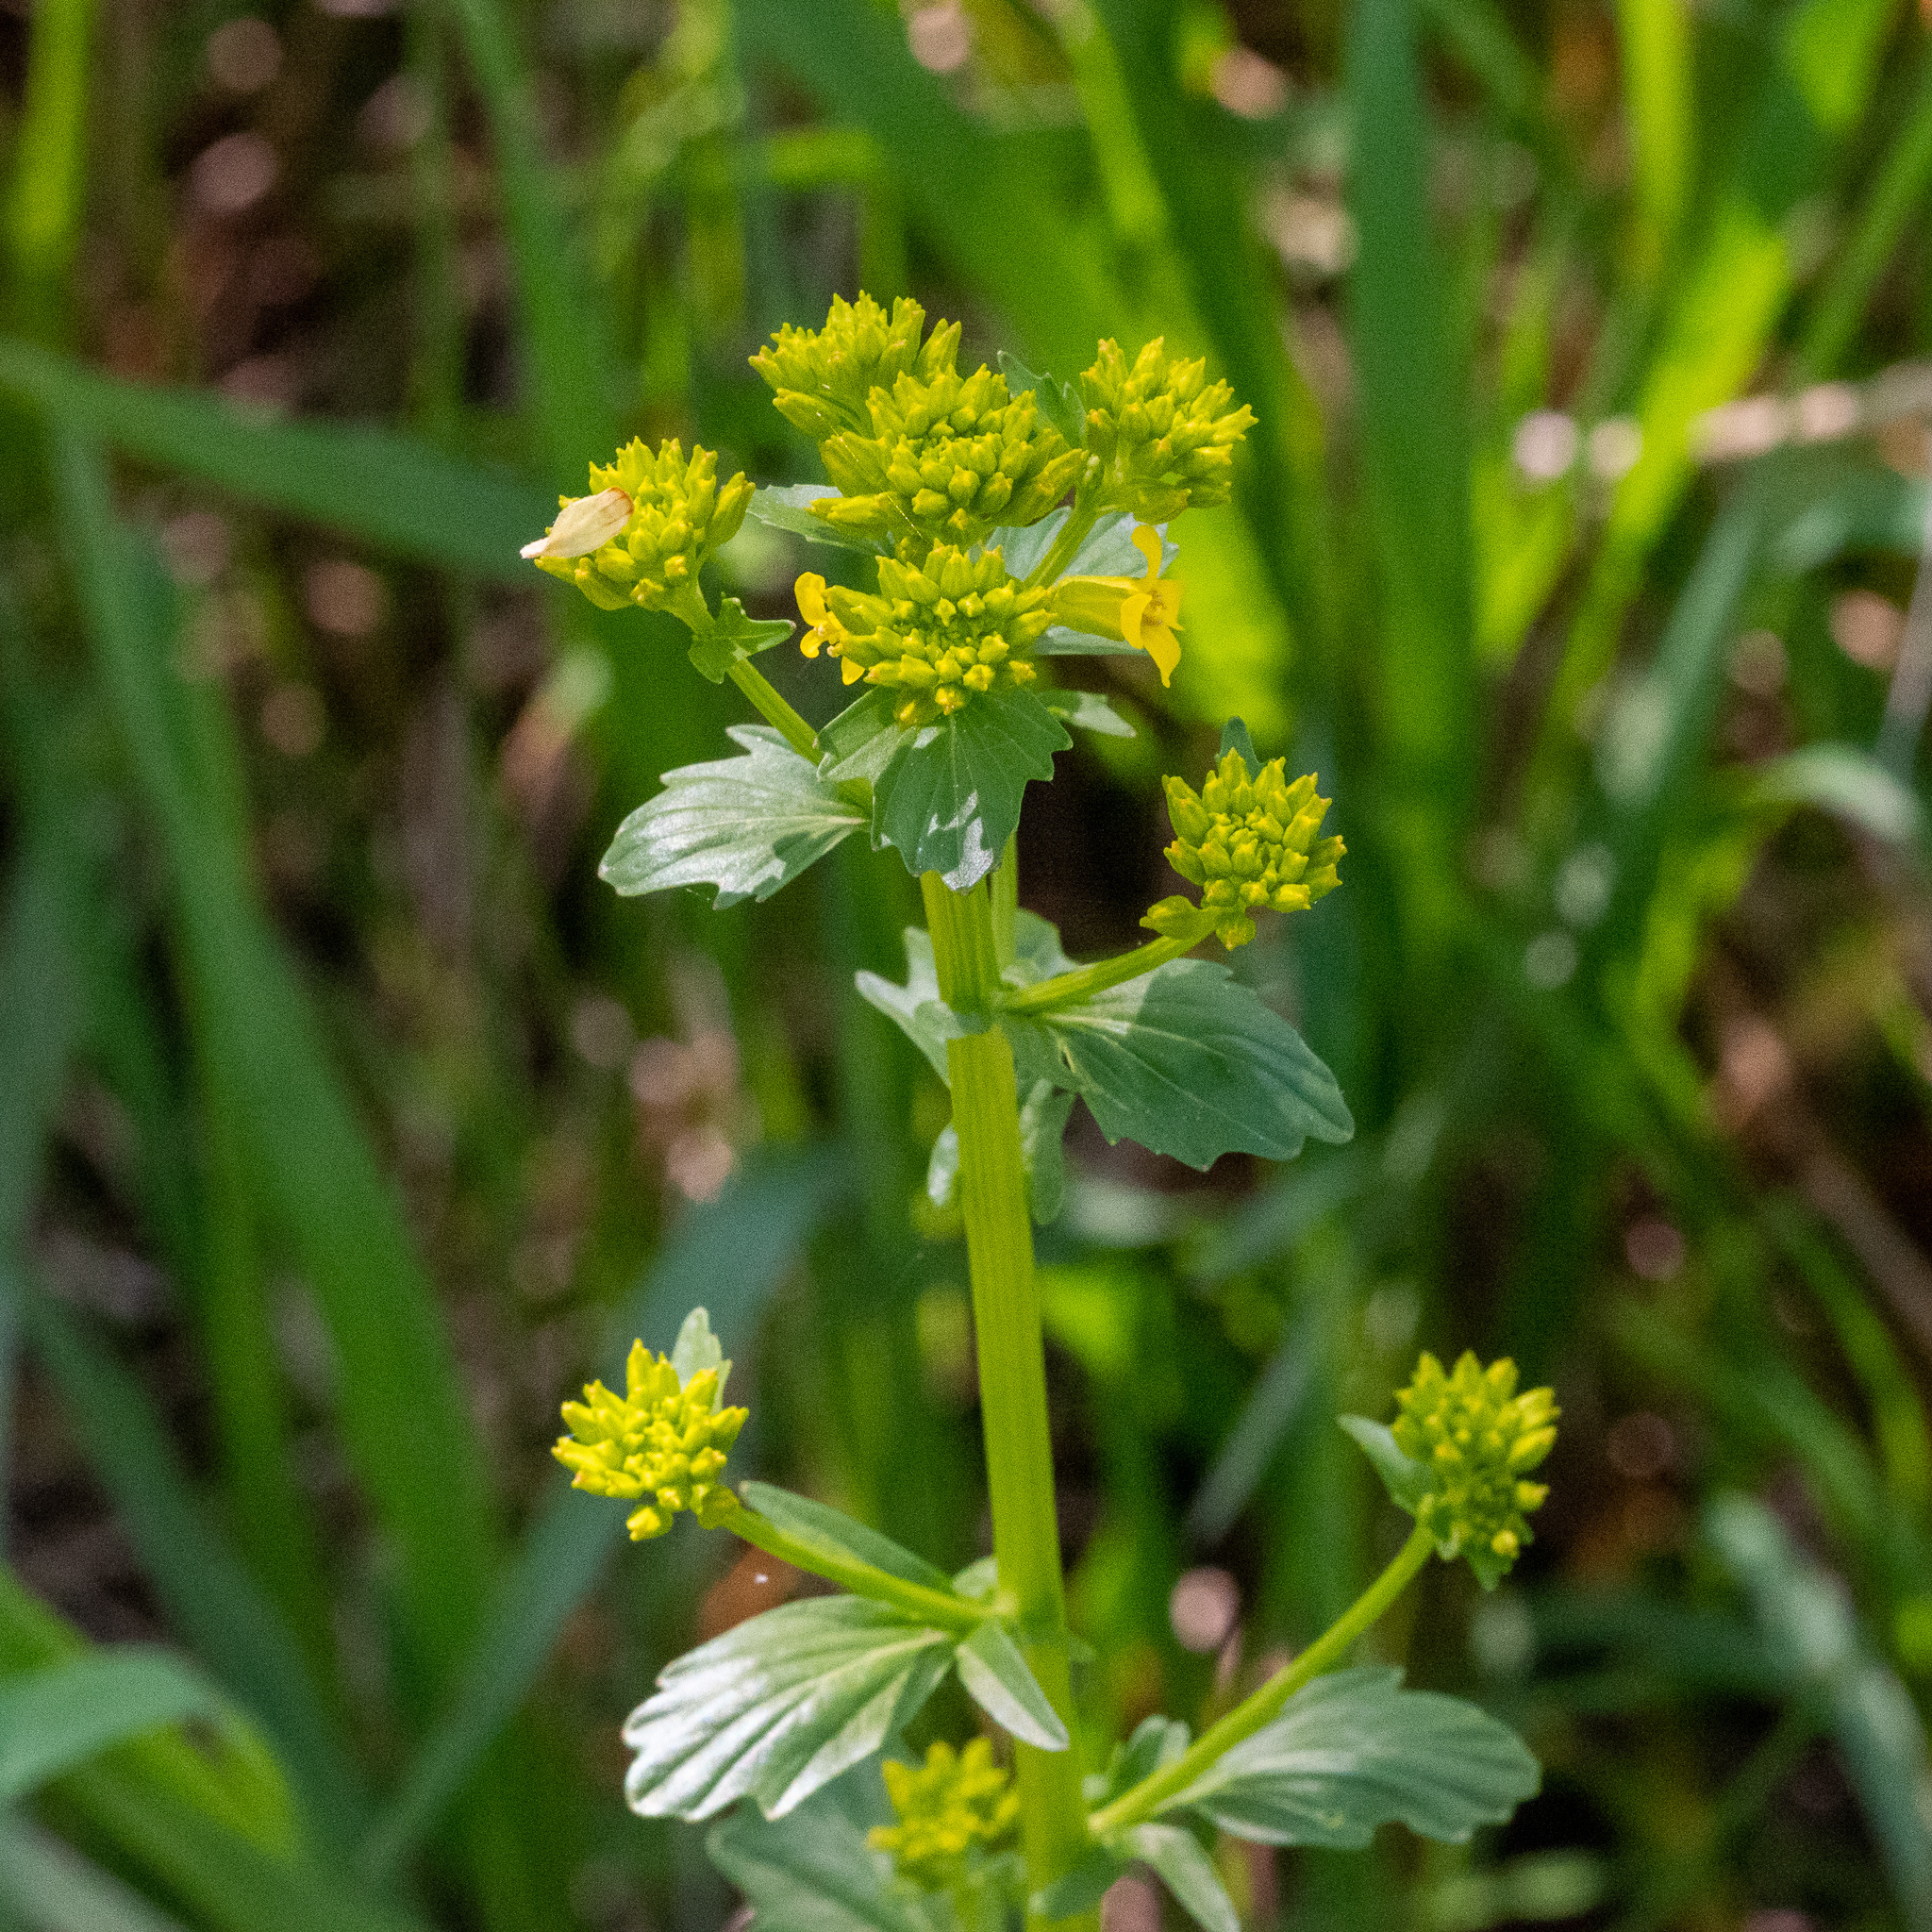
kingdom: Plantae
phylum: Tracheophyta
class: Magnoliopsida
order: Brassicales
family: Brassicaceae
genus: Barbarea
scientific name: Barbarea vulgaris
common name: Cressy-greens
